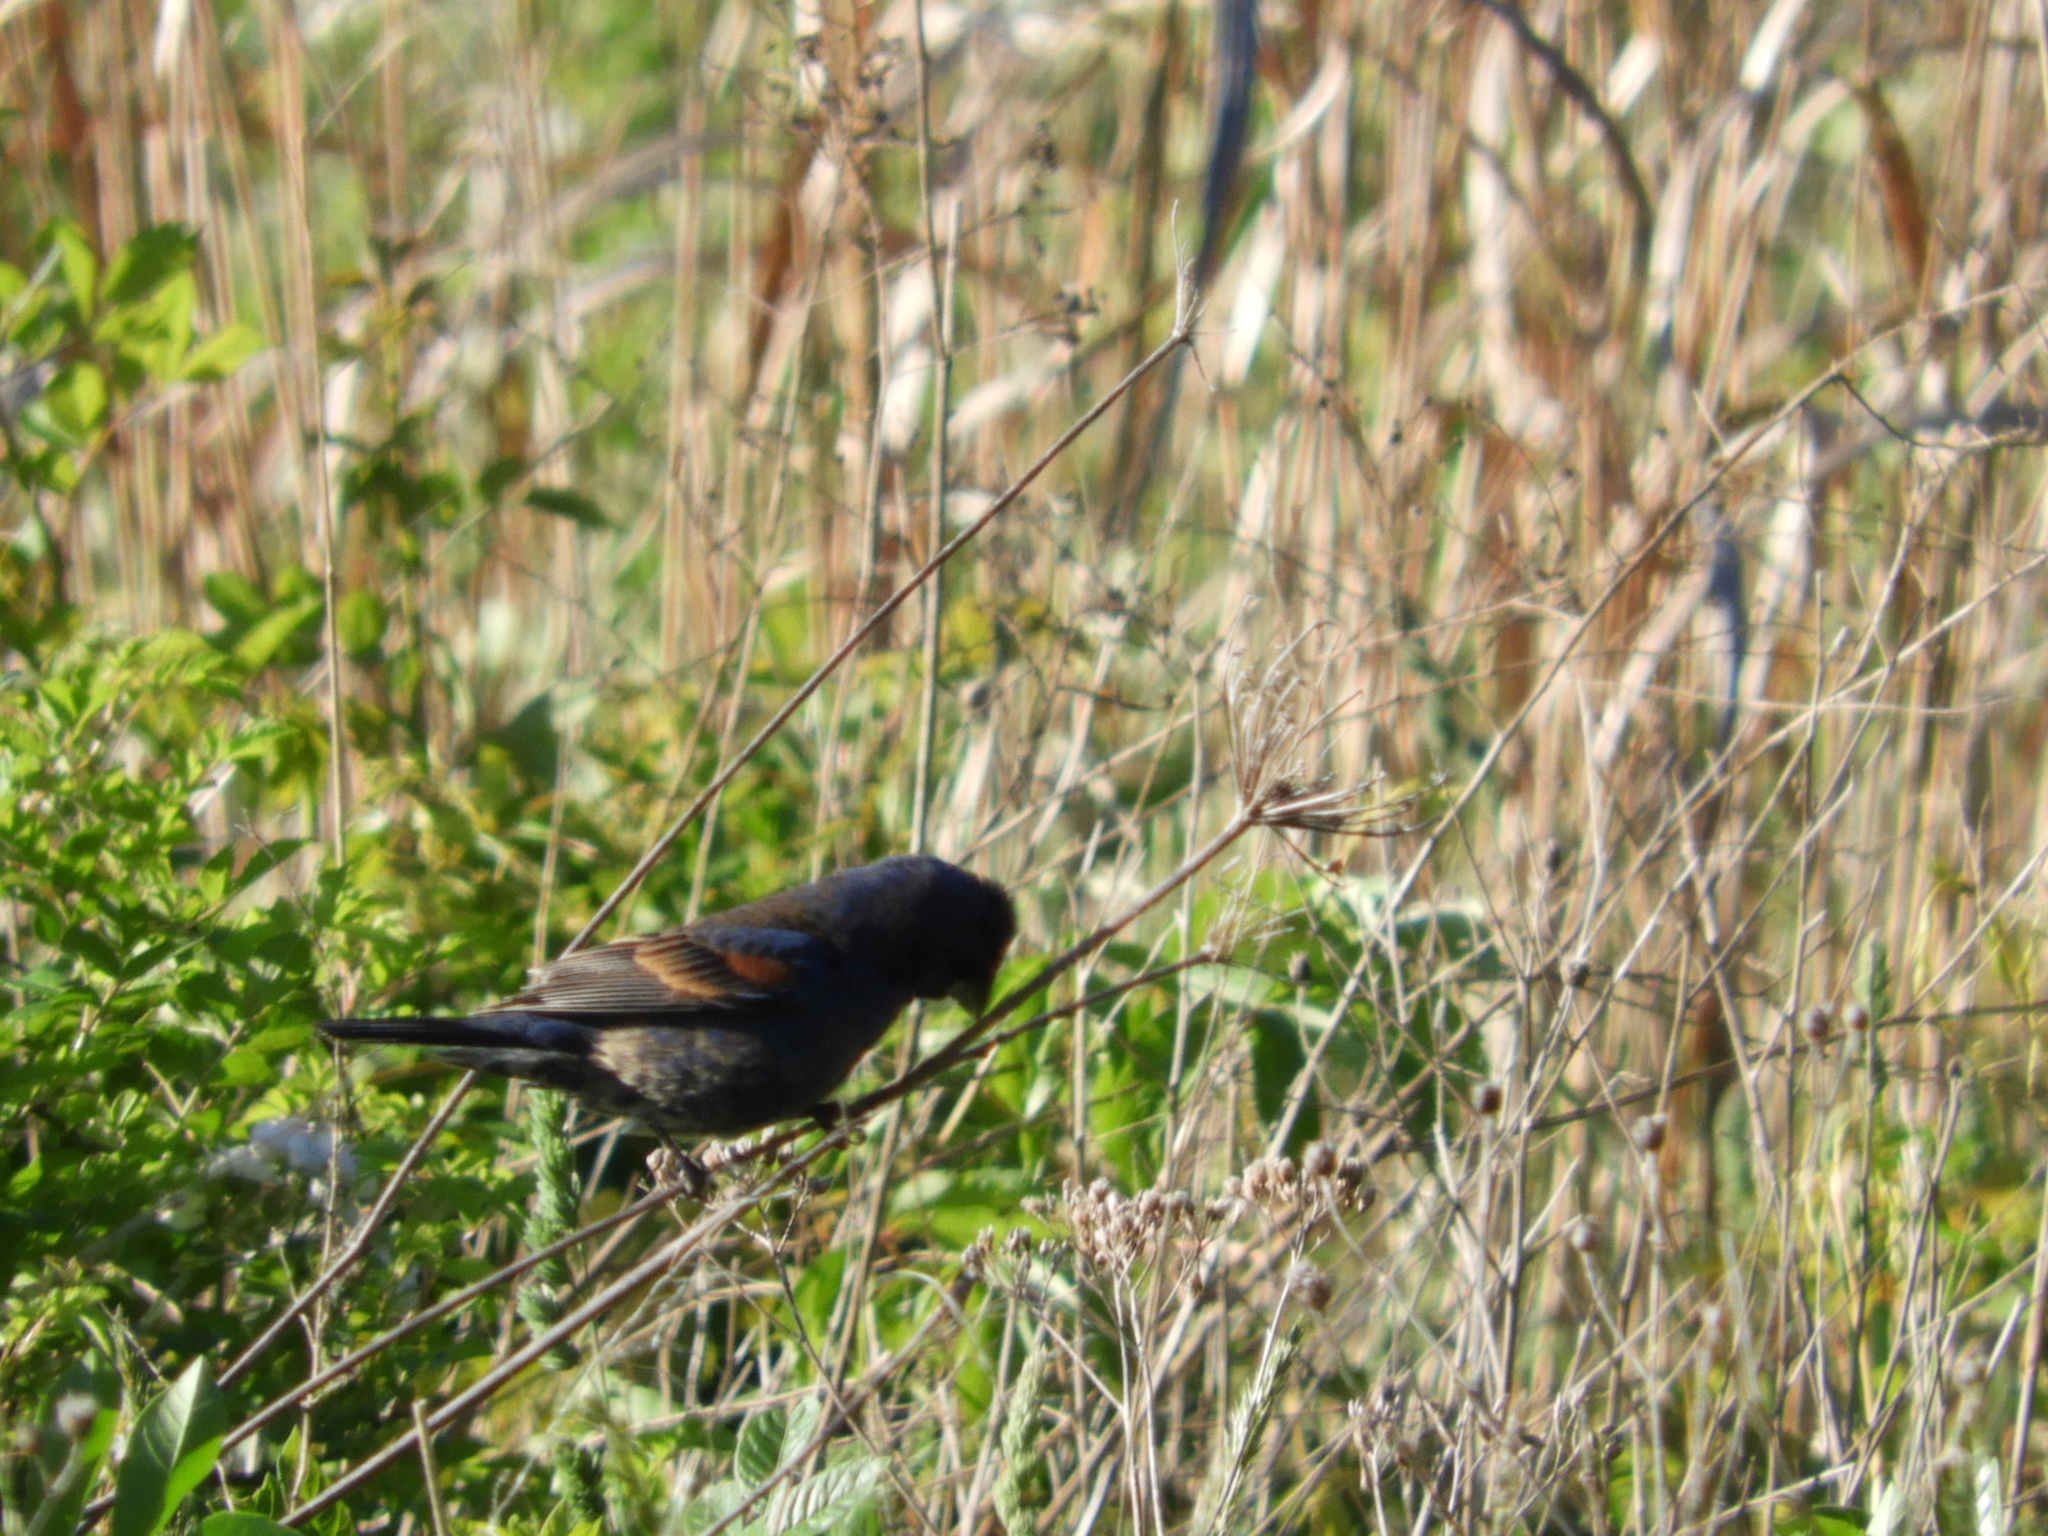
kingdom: Animalia
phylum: Chordata
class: Aves
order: Passeriformes
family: Cardinalidae
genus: Passerina
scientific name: Passerina caerulea
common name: Blue grosbeak
